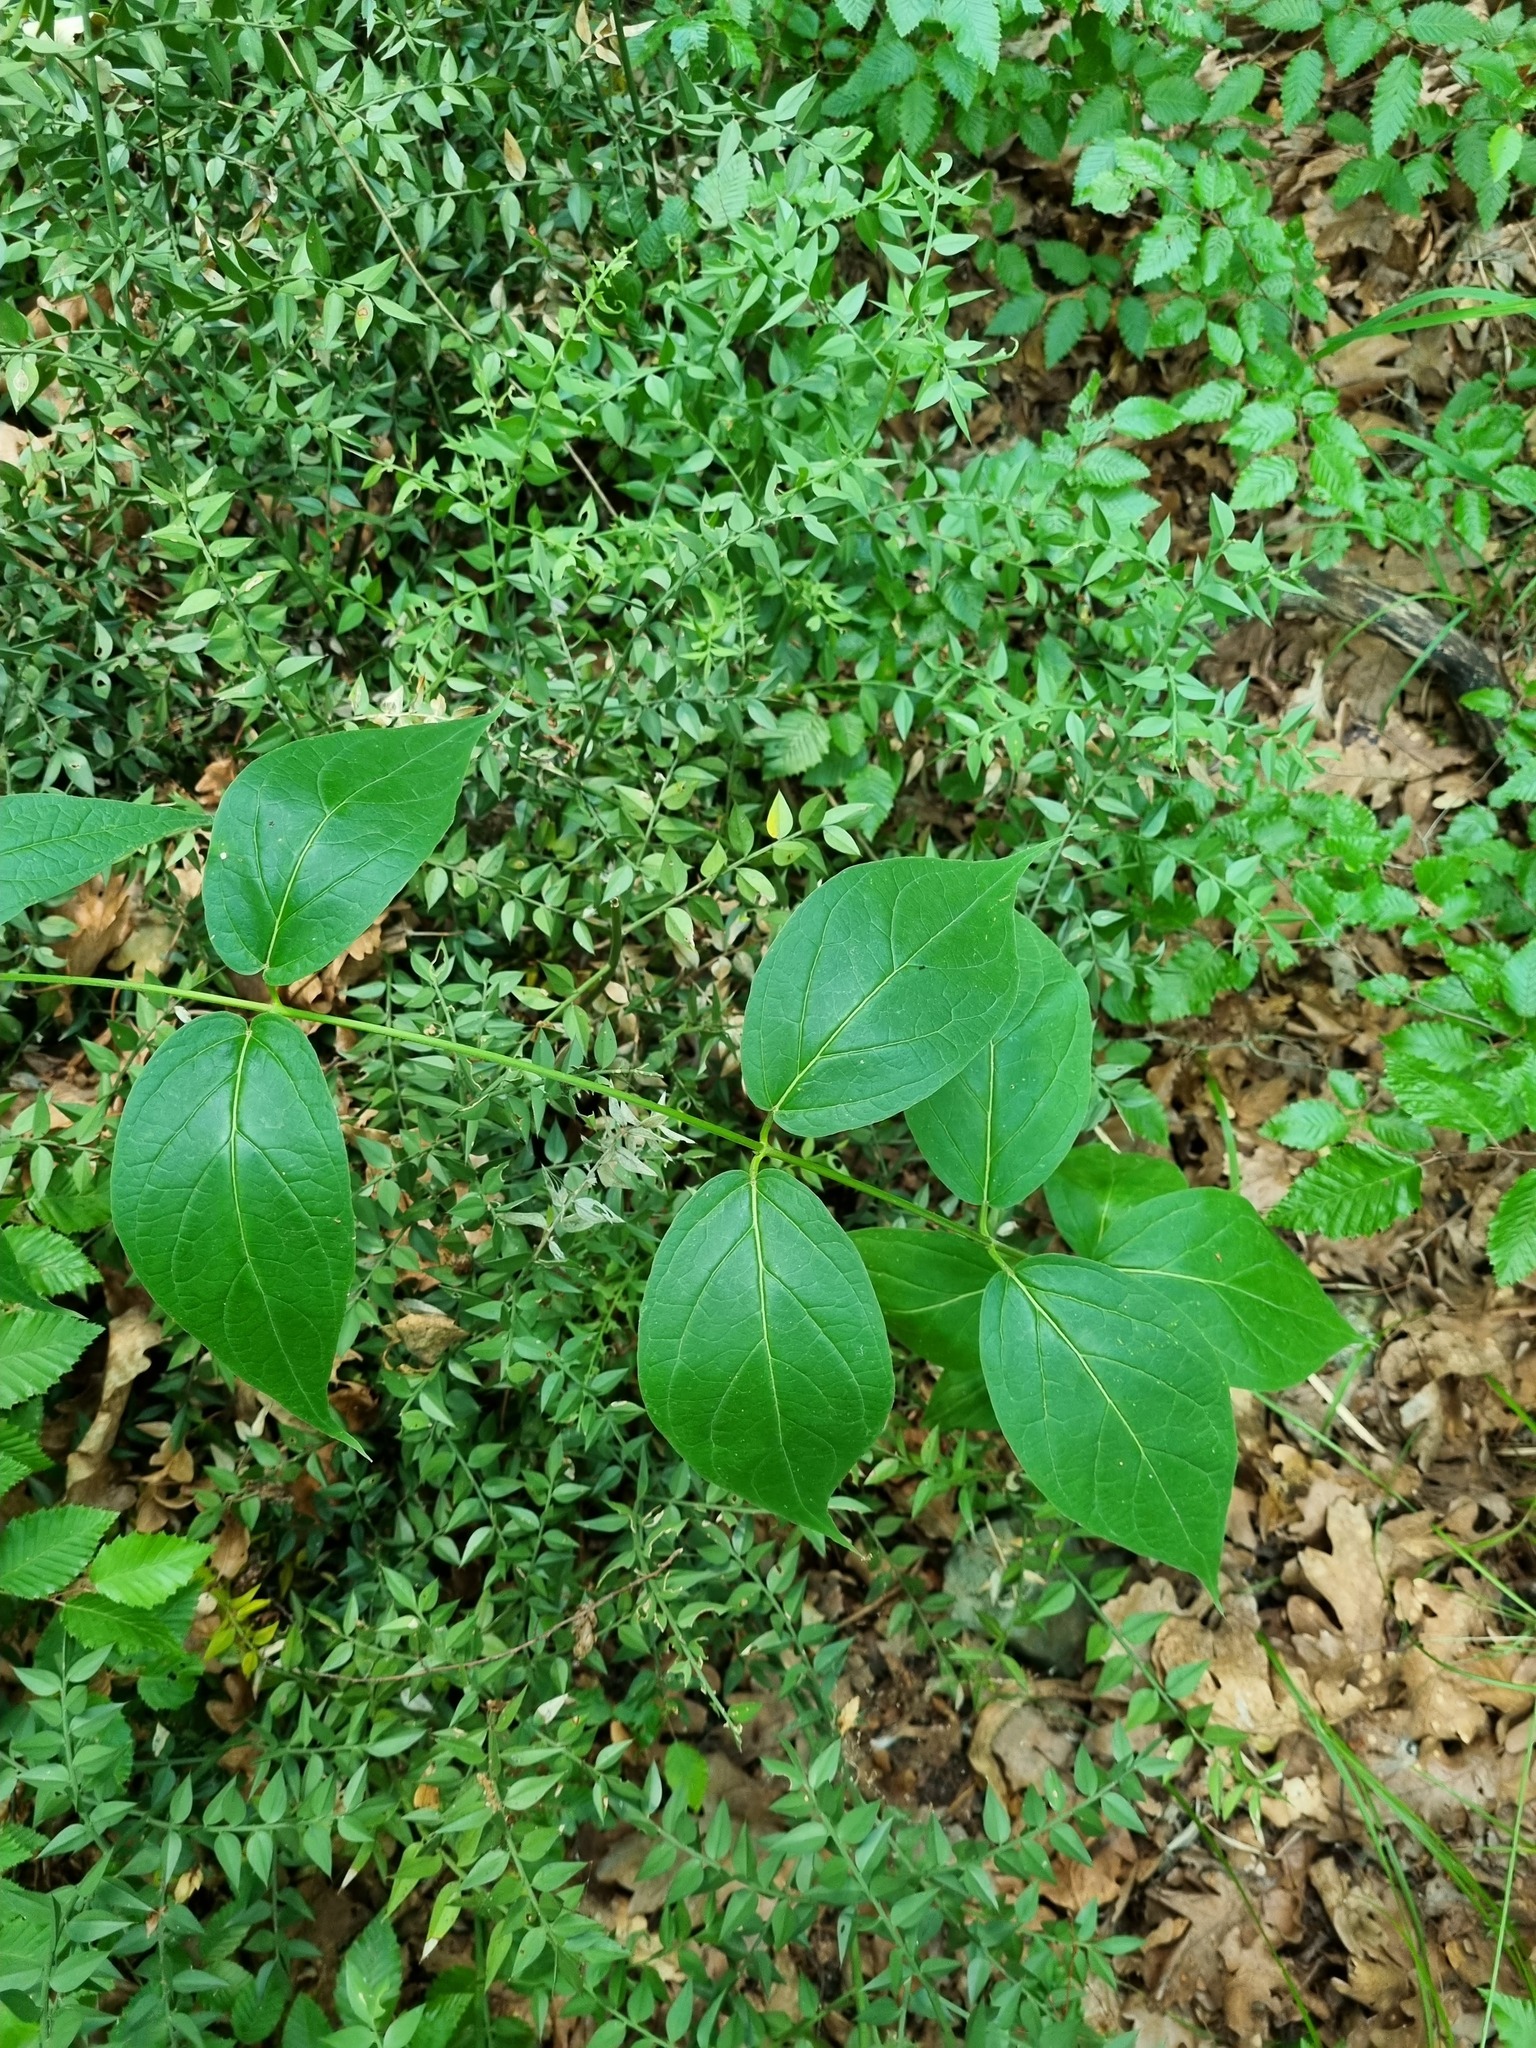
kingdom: Plantae
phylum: Tracheophyta
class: Magnoliopsida
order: Gentianales
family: Apocynaceae
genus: Vincetoxicum
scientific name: Vincetoxicum scandens
